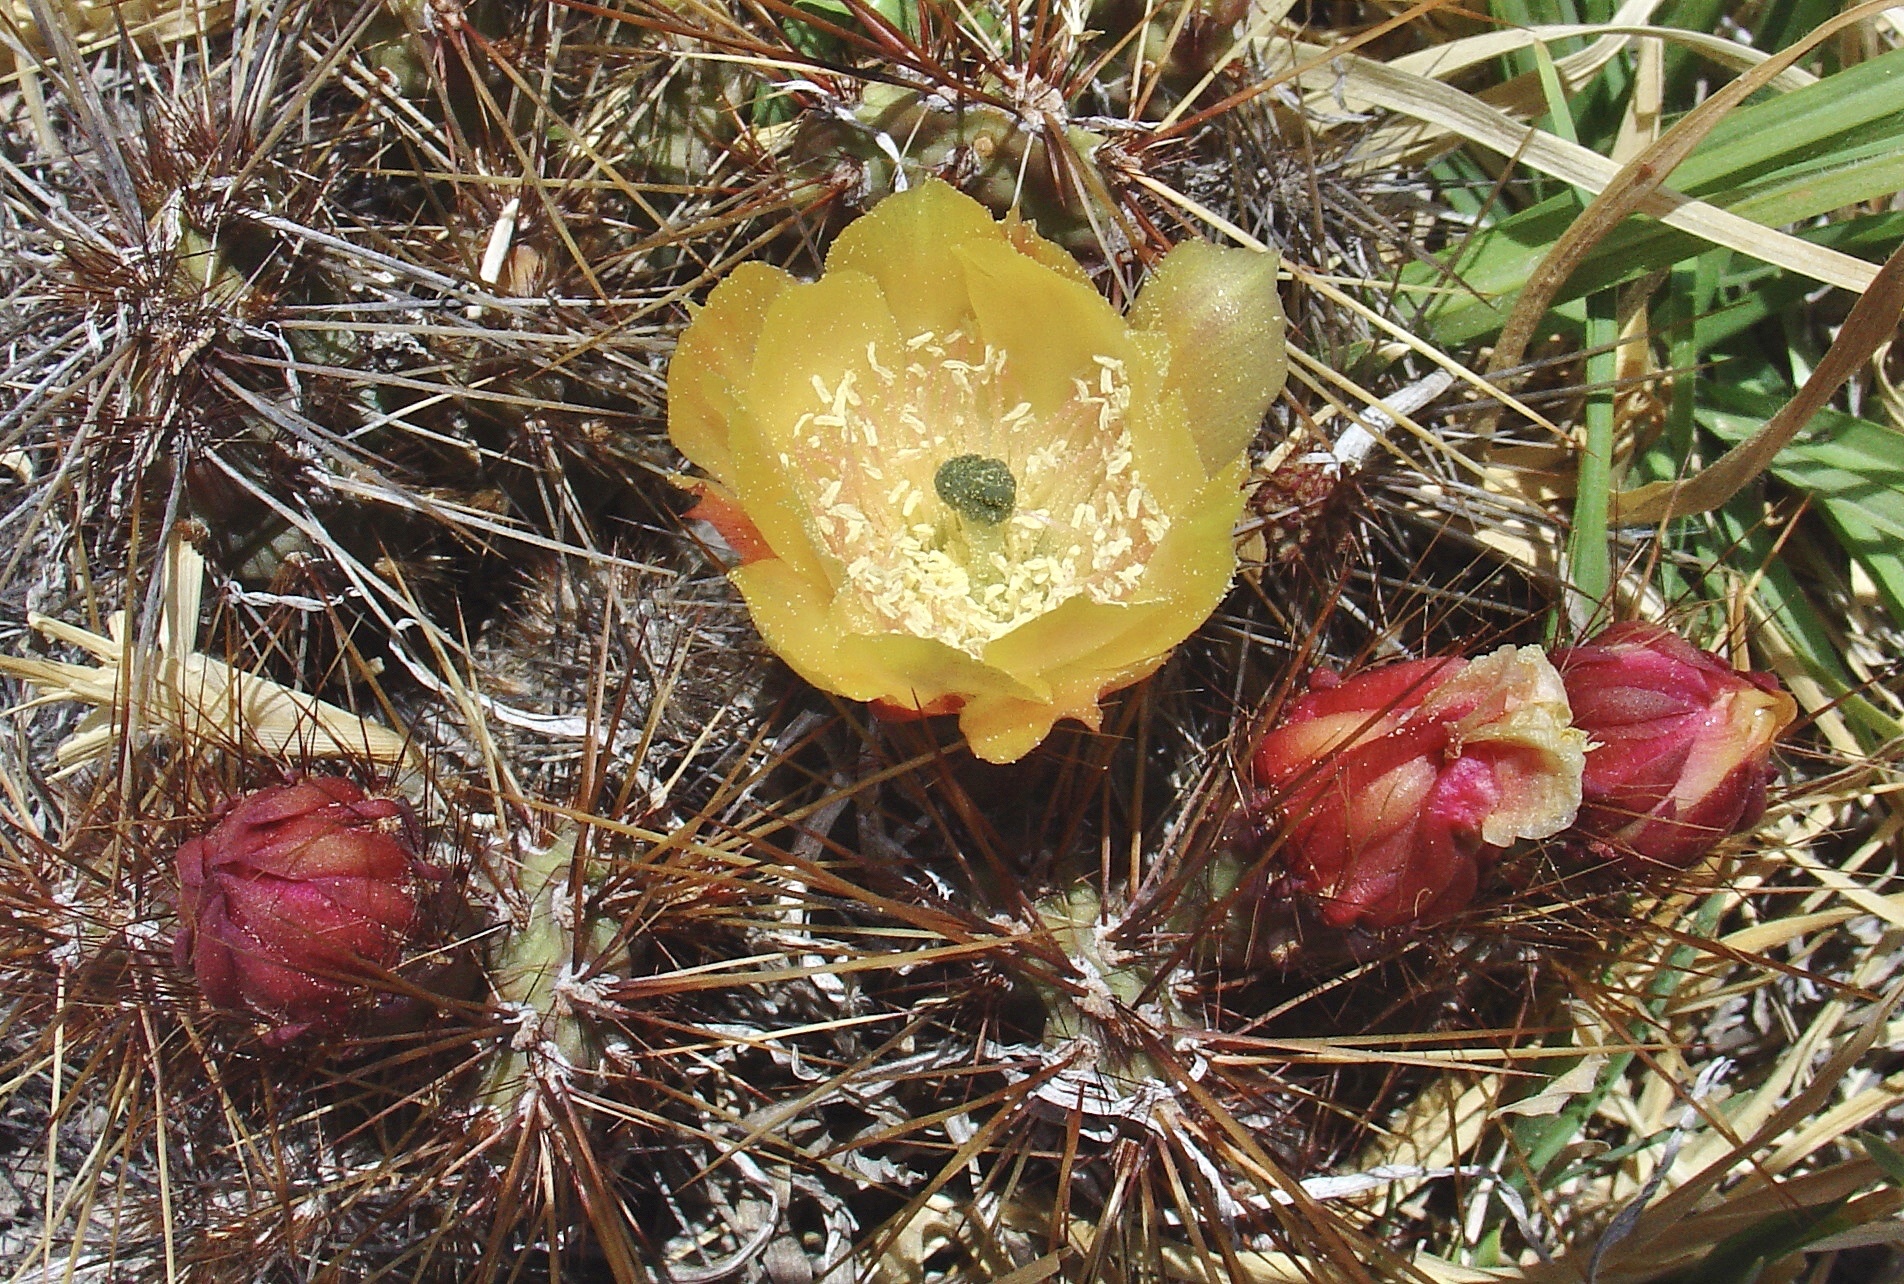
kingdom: Plantae
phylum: Tracheophyta
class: Magnoliopsida
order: Caryophyllales
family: Cactaceae
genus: Airampoa
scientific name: Airampoa soehrensii
